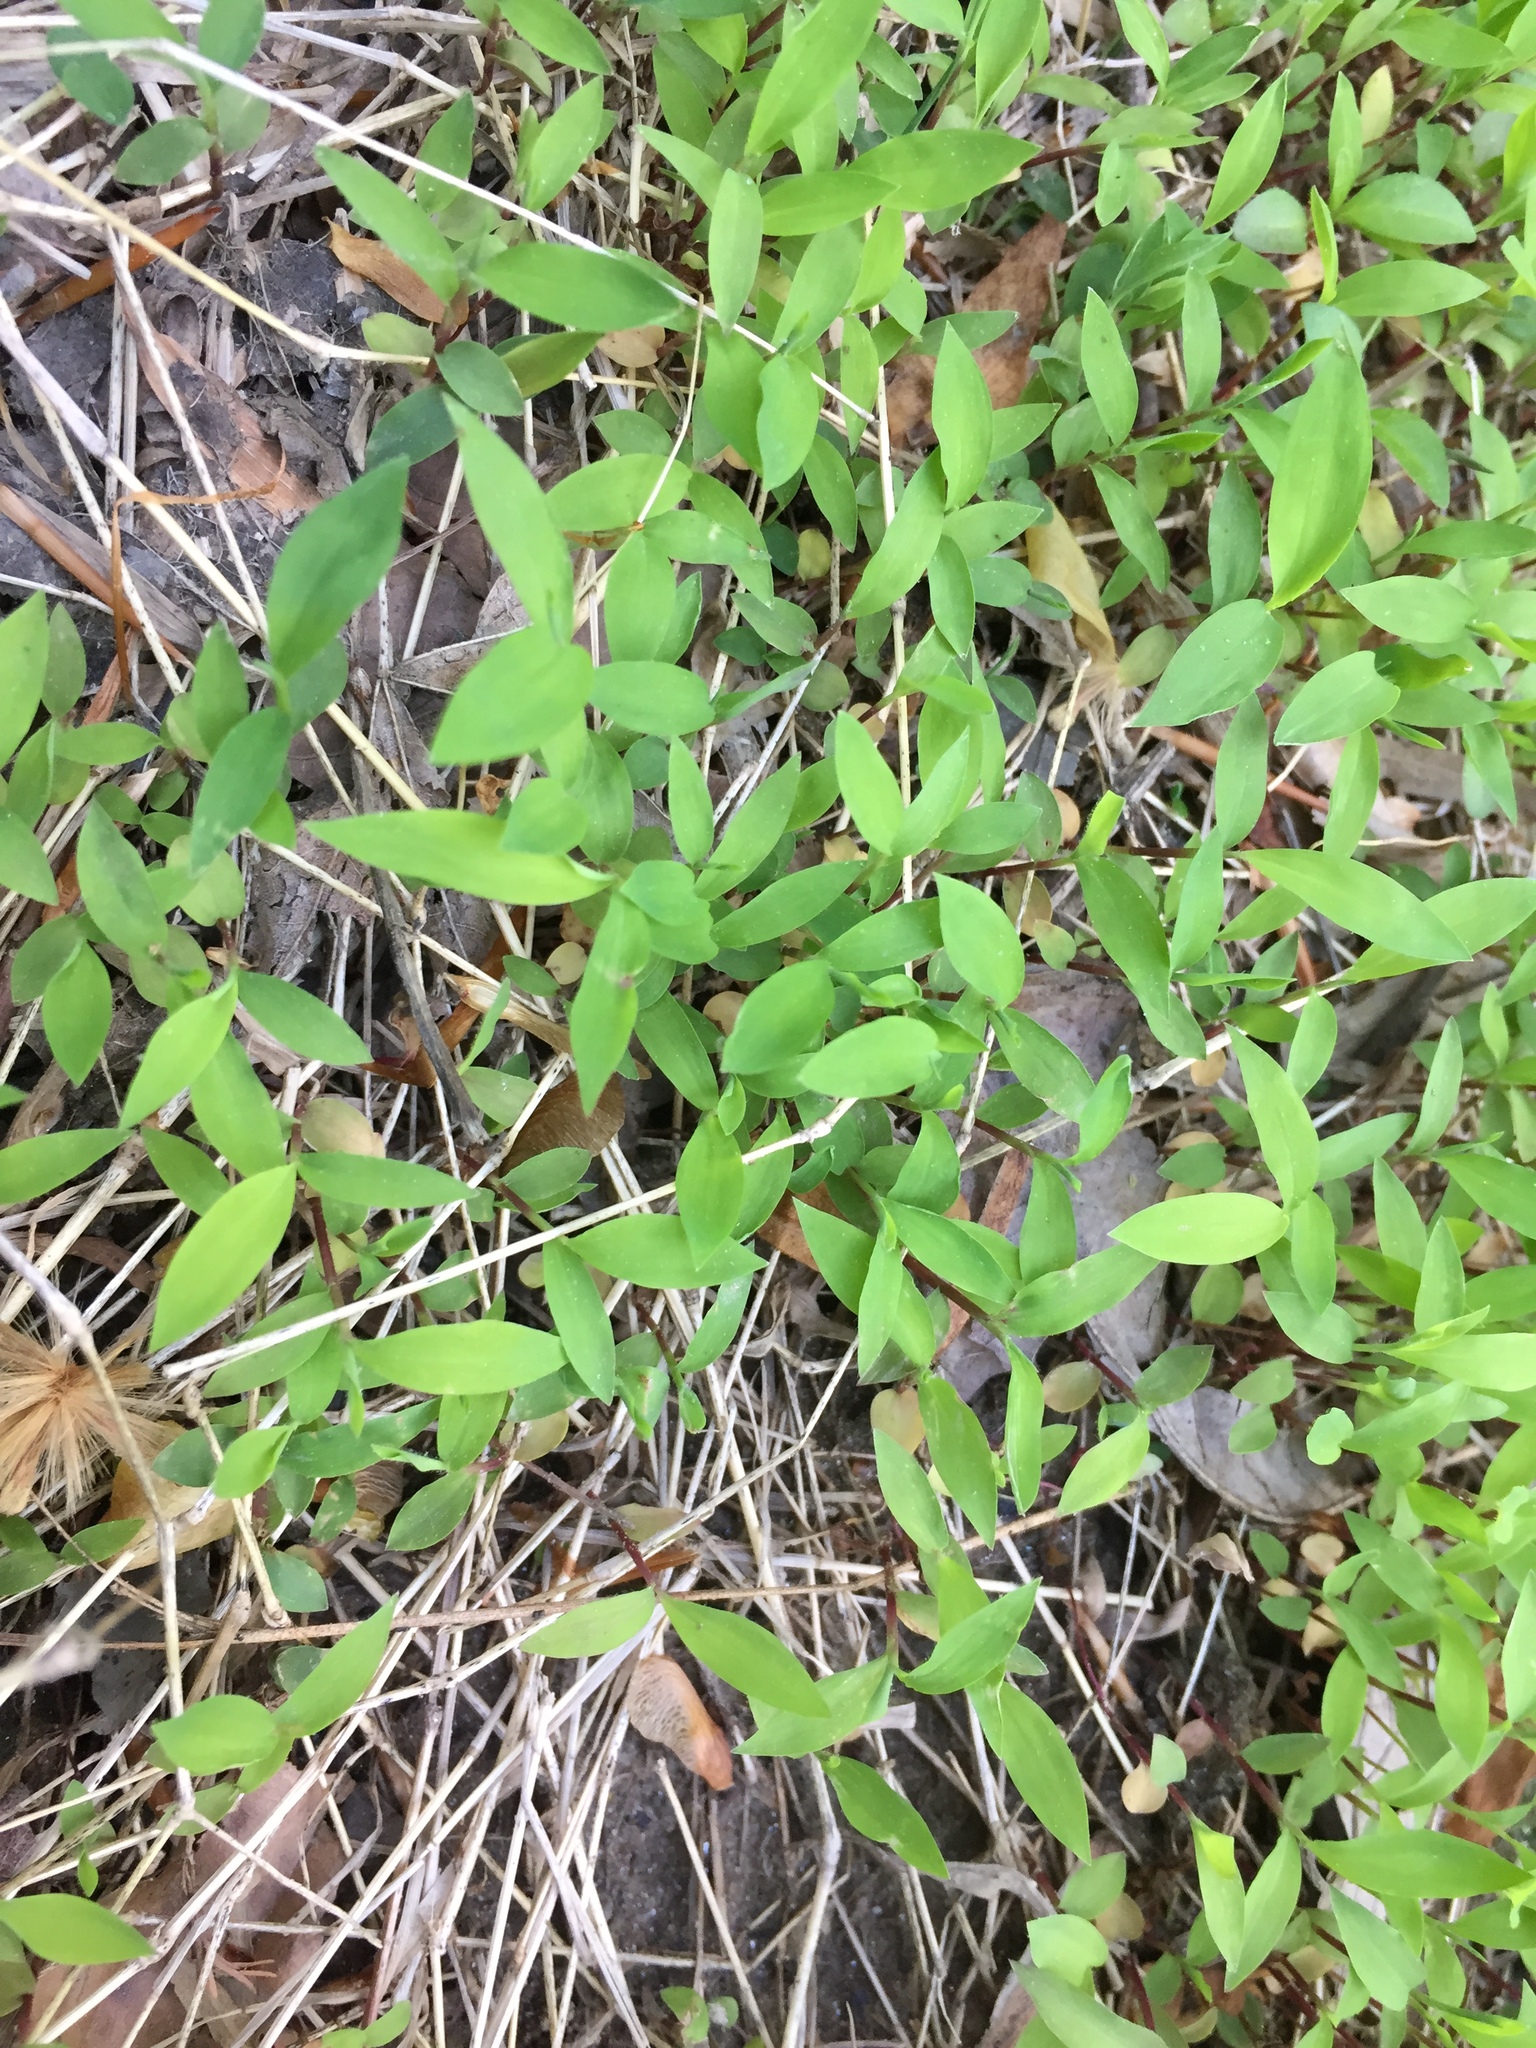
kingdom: Plantae
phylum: Tracheophyta
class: Liliopsida
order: Poales
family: Poaceae
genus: Microstegium
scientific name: Microstegium vimineum
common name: Japanese stiltgrass
